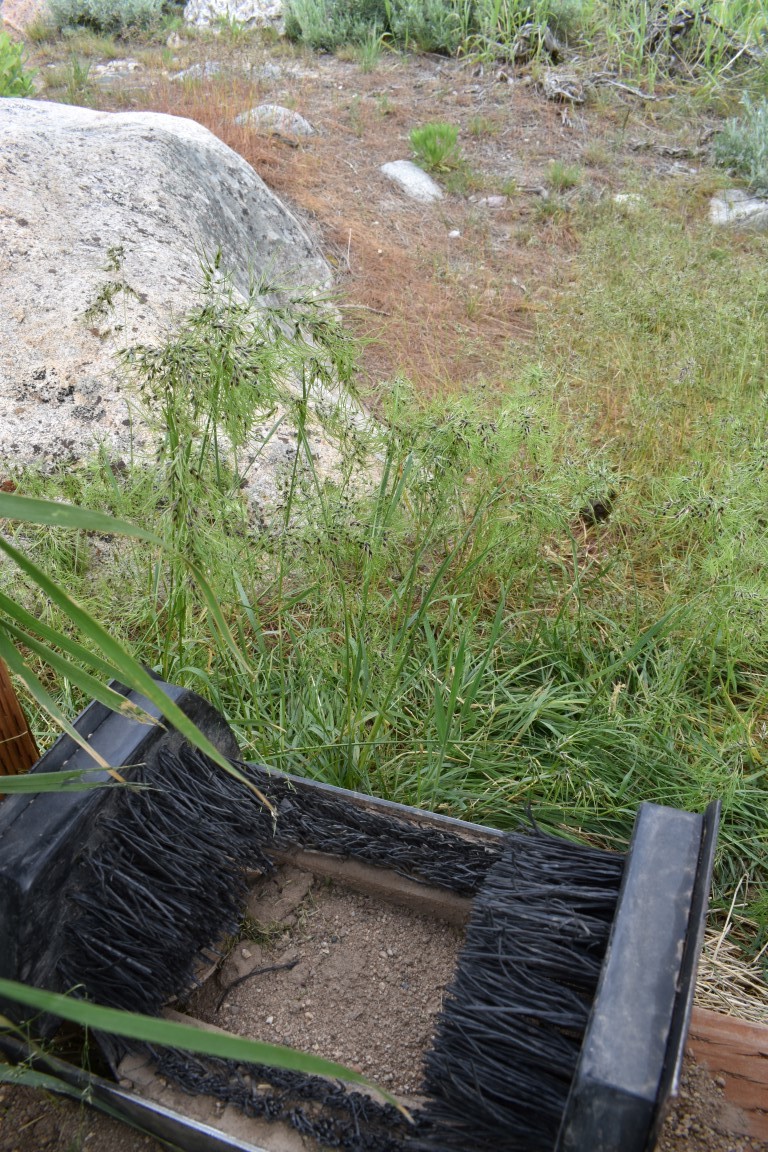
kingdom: Plantae
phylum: Tracheophyta
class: Liliopsida
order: Poales
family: Poaceae
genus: Poa
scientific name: Poa bulbosa
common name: Bulbous bluegrass
